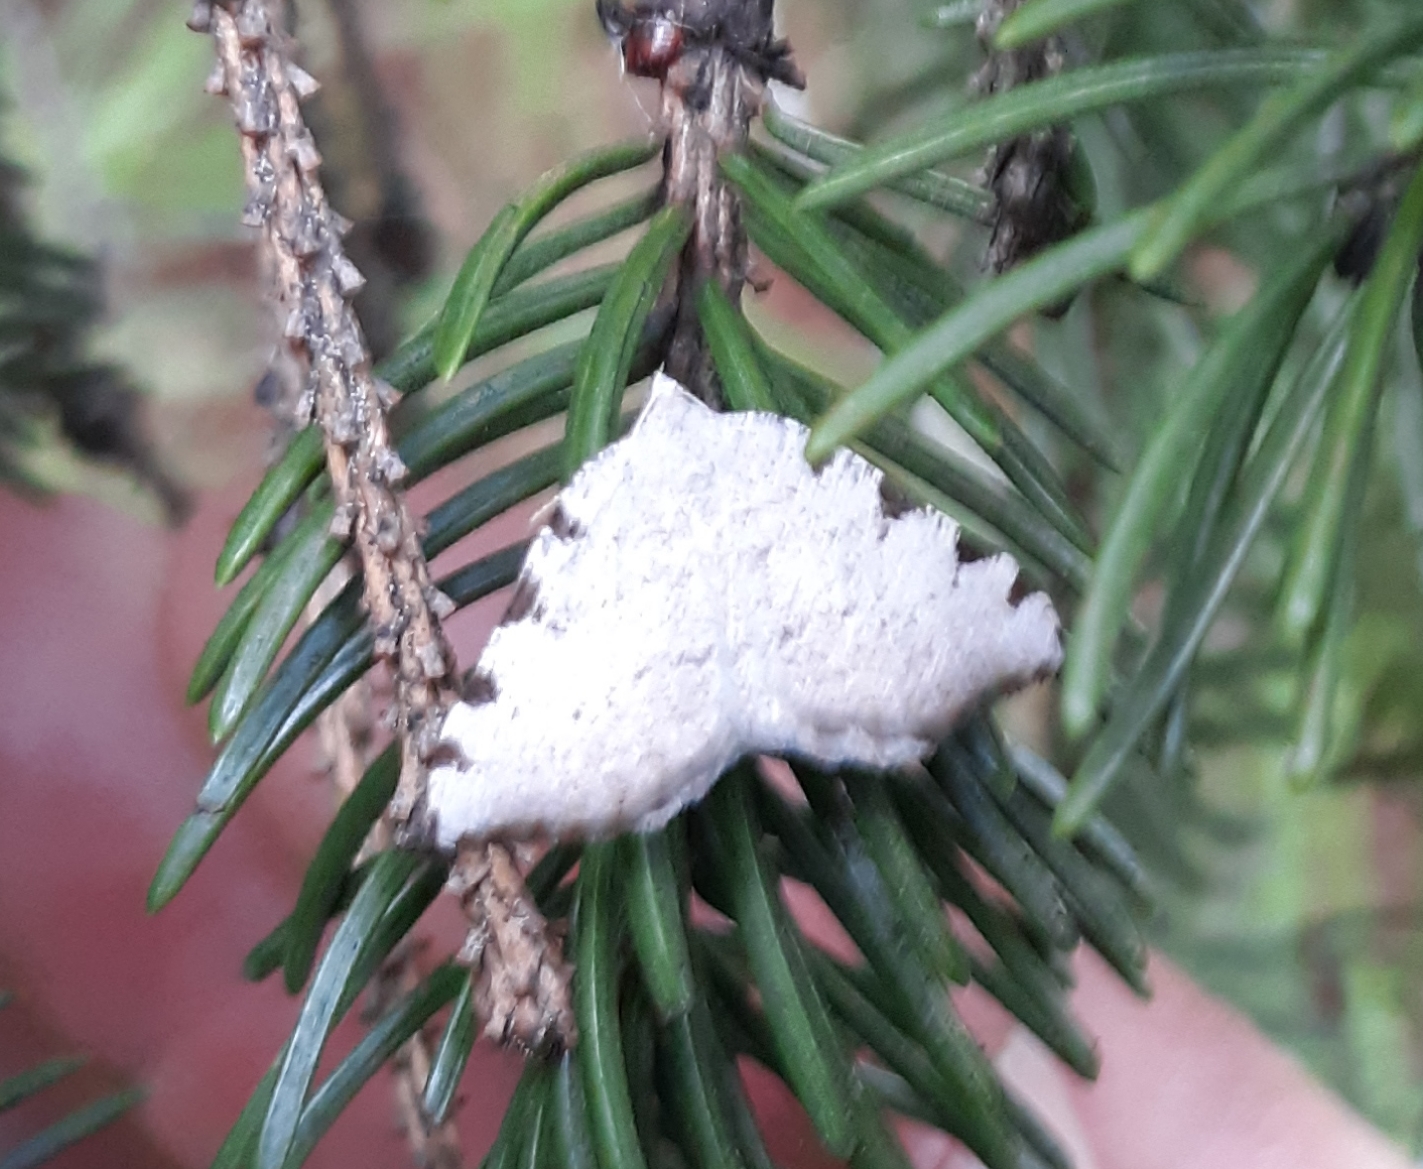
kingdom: Animalia
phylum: Arthropoda
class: Insecta
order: Lepidoptera
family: Geometridae
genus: Macaria
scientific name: Macaria coortaria
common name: Four-spotted granite
